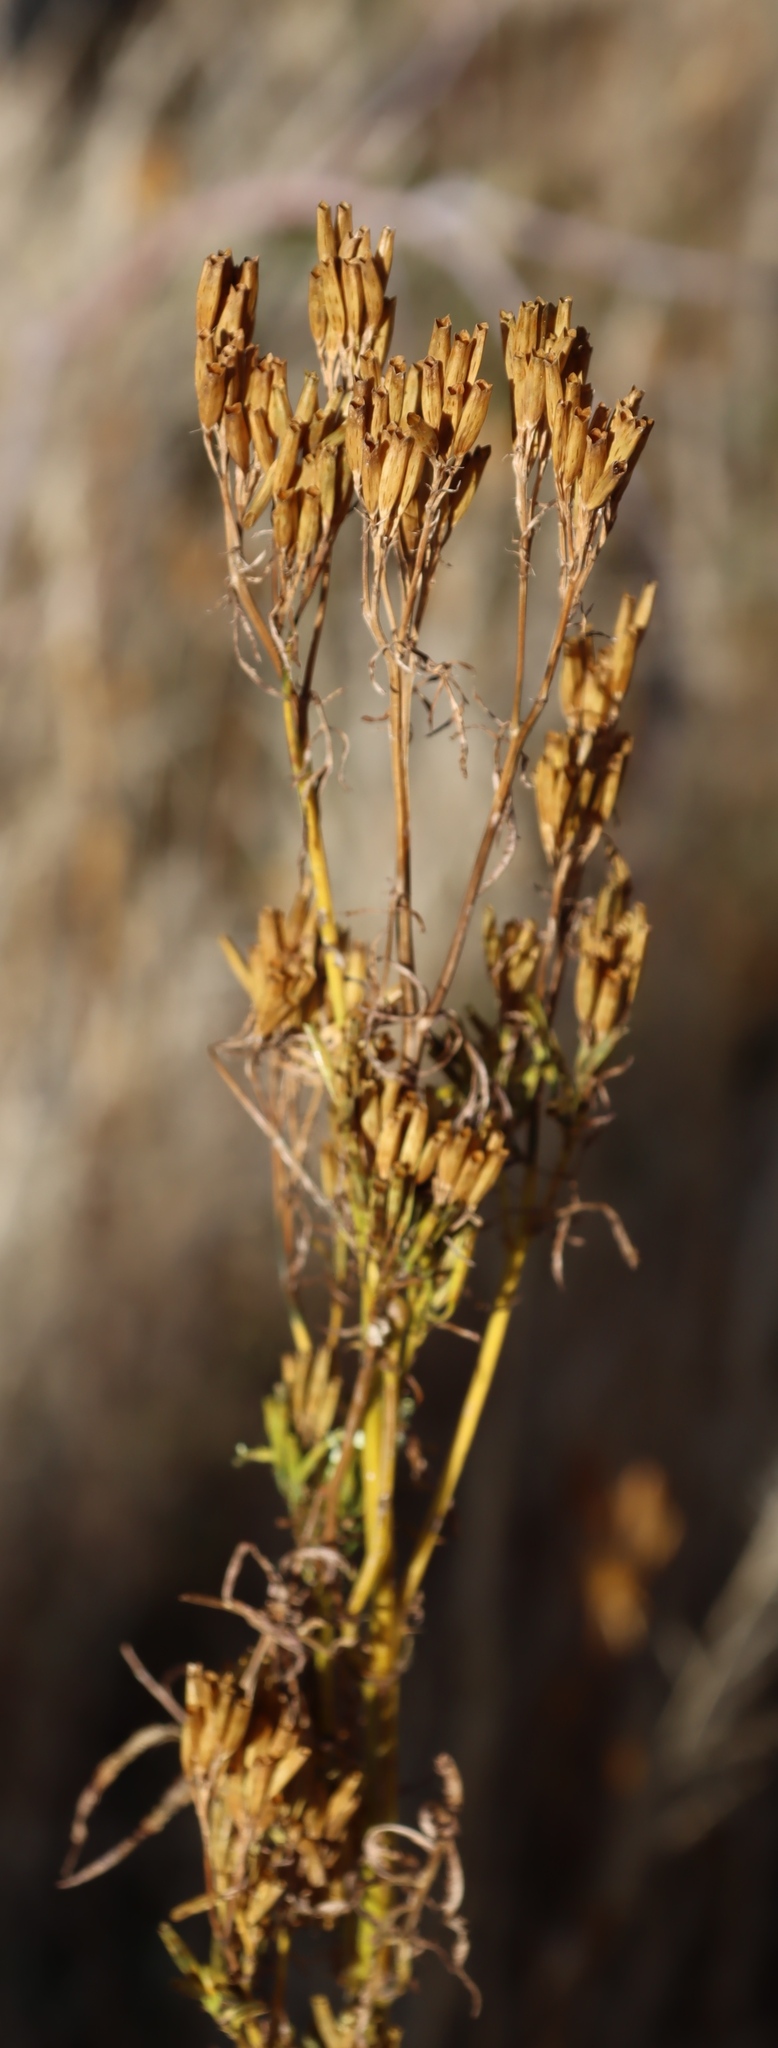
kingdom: Plantae
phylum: Tracheophyta
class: Magnoliopsida
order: Asterales
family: Asteraceae
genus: Tagetes
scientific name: Tagetes minuta
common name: Muster john henry
